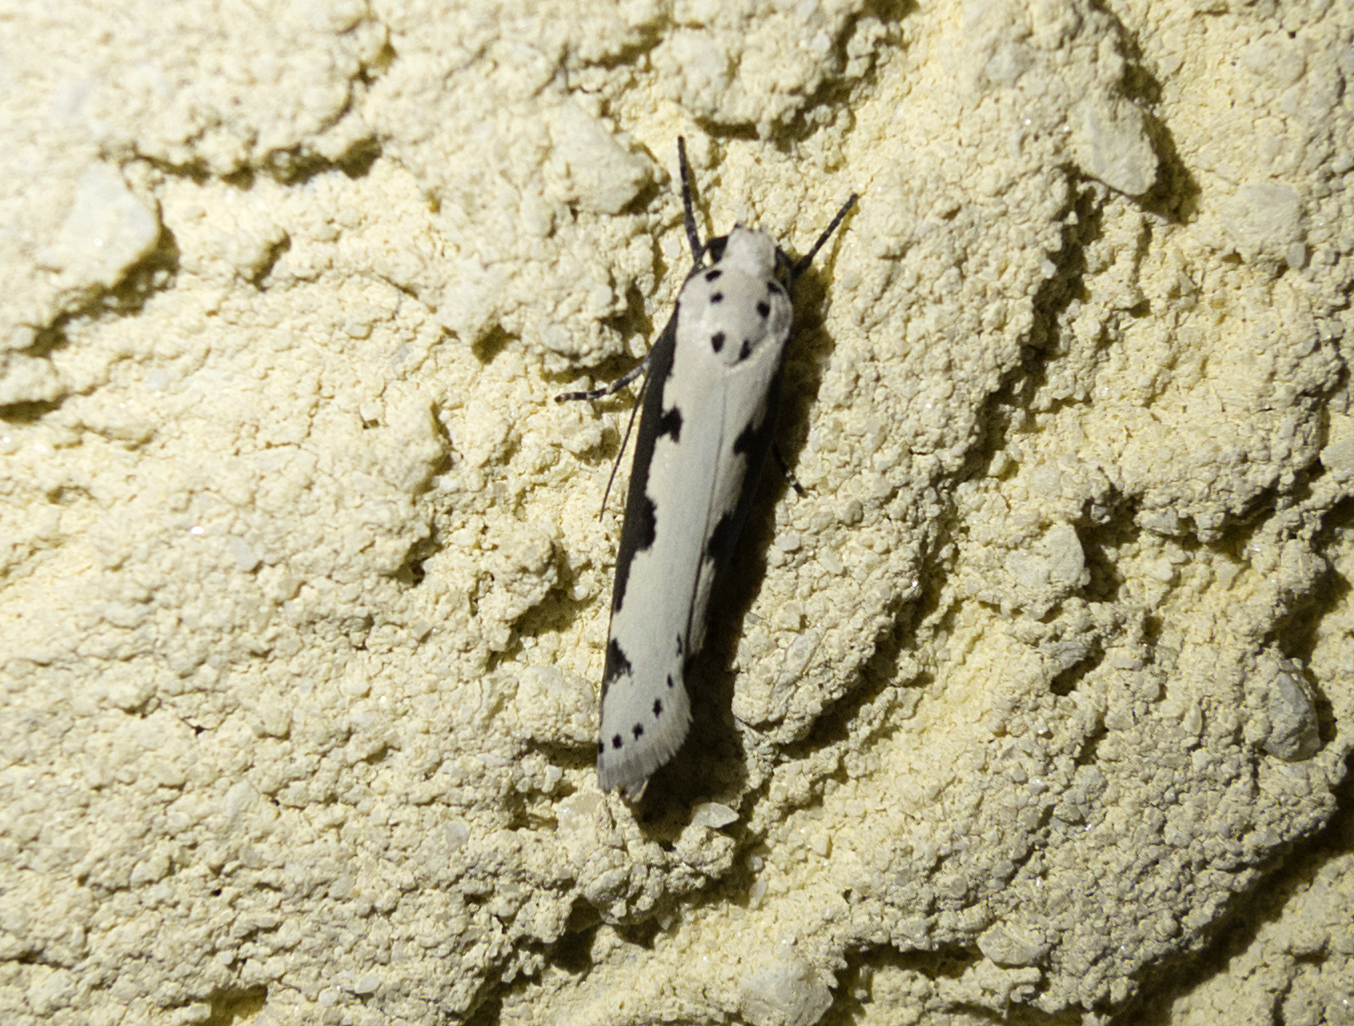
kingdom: Animalia
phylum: Arthropoda
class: Insecta
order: Lepidoptera
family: Ethmiidae
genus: Ethmia
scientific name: Ethmia bipunctella
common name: Bordered ermel
